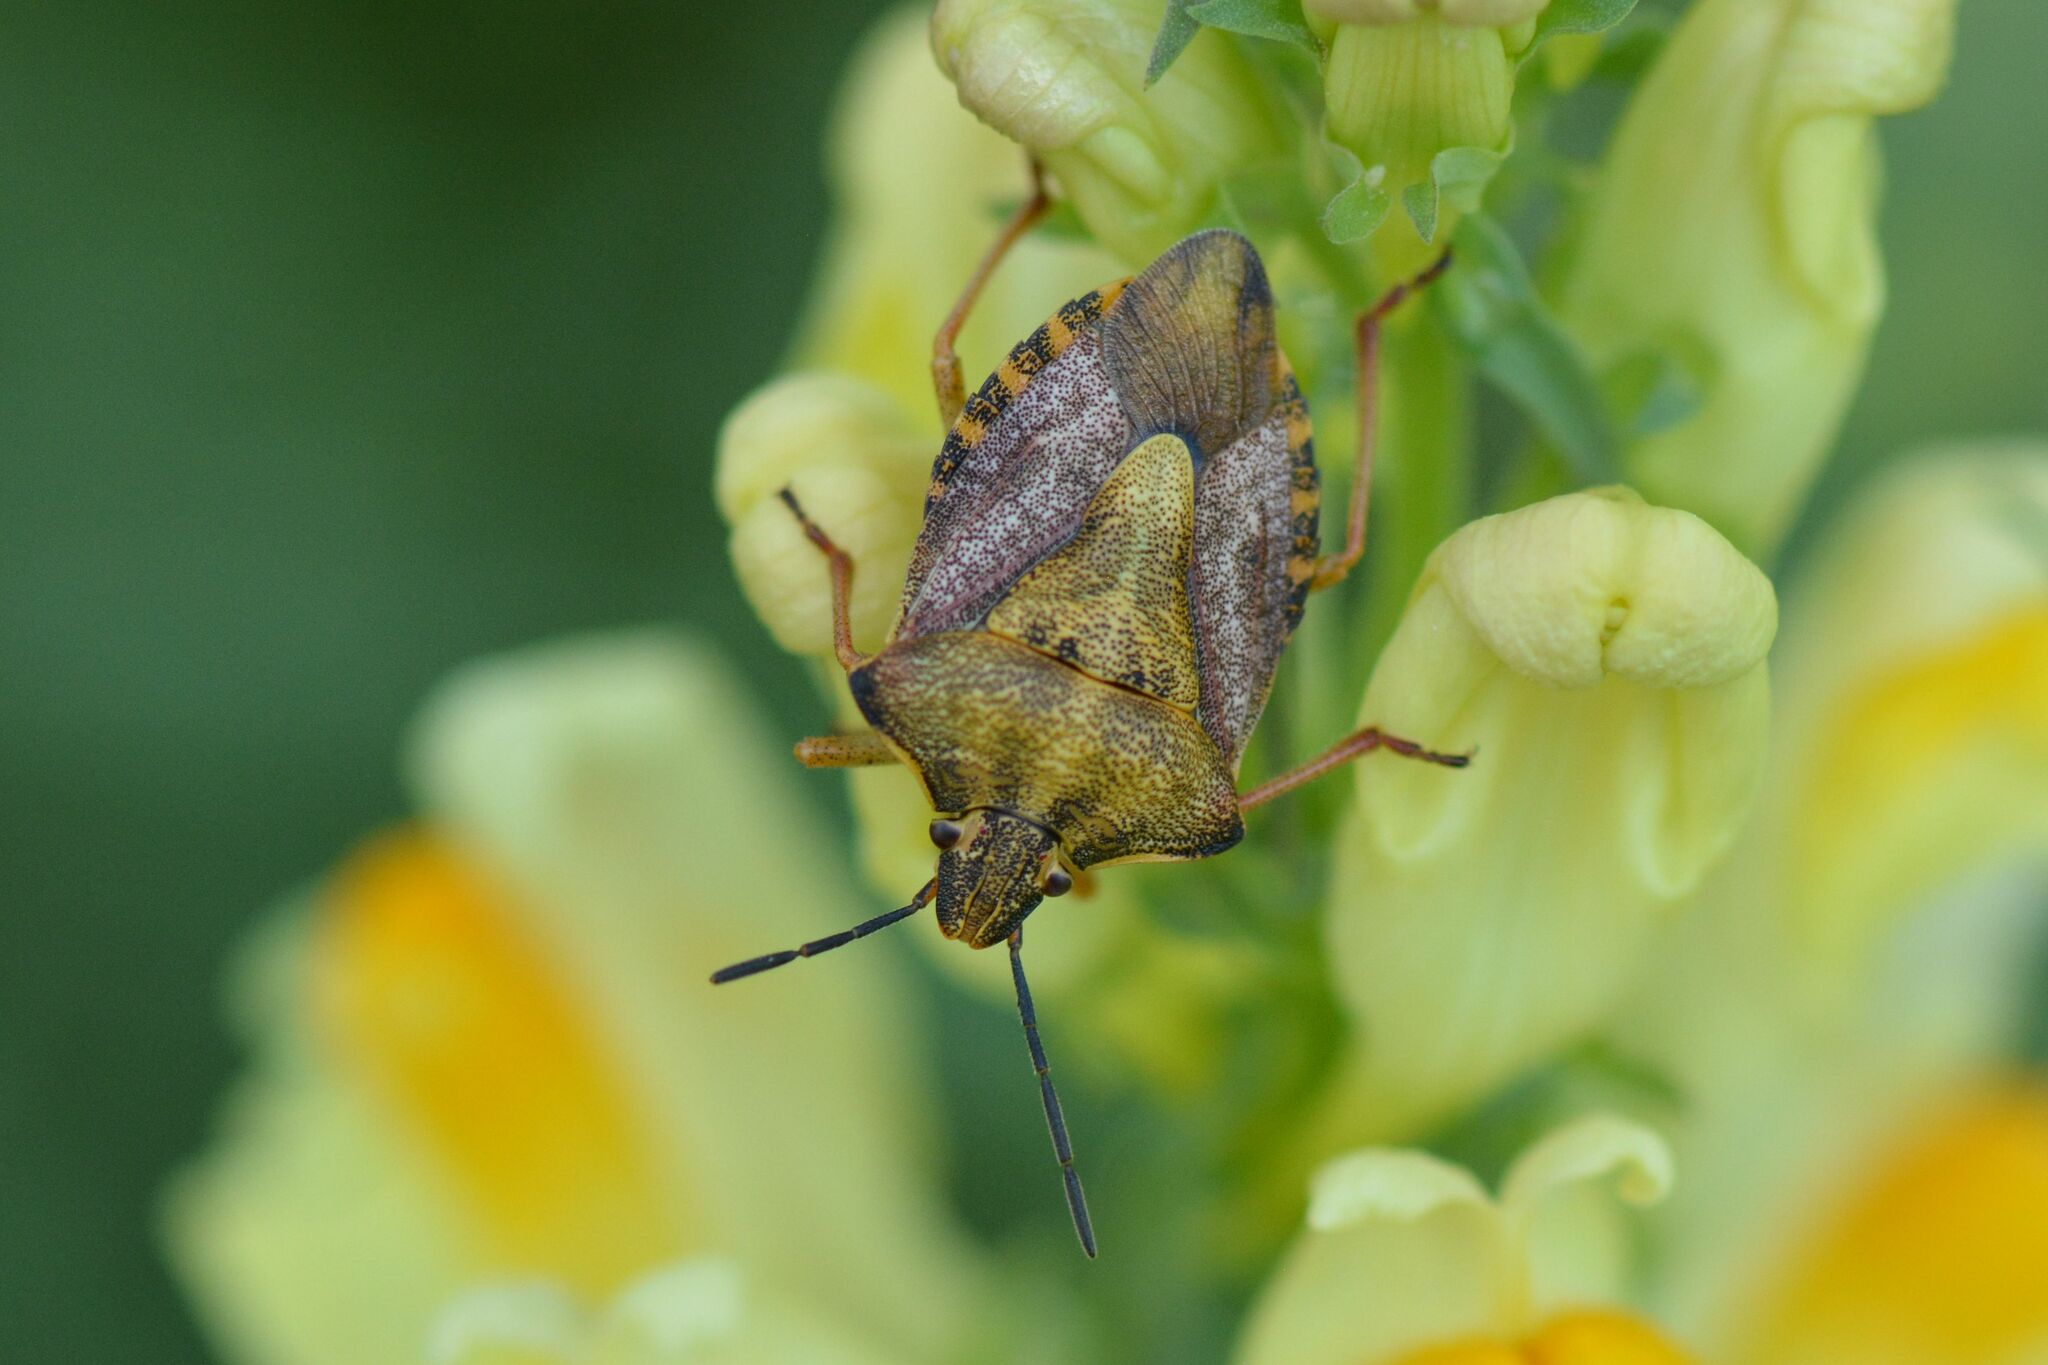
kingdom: Animalia
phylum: Arthropoda
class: Insecta
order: Hemiptera
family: Pentatomidae
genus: Carpocoris
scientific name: Carpocoris purpureipennis
